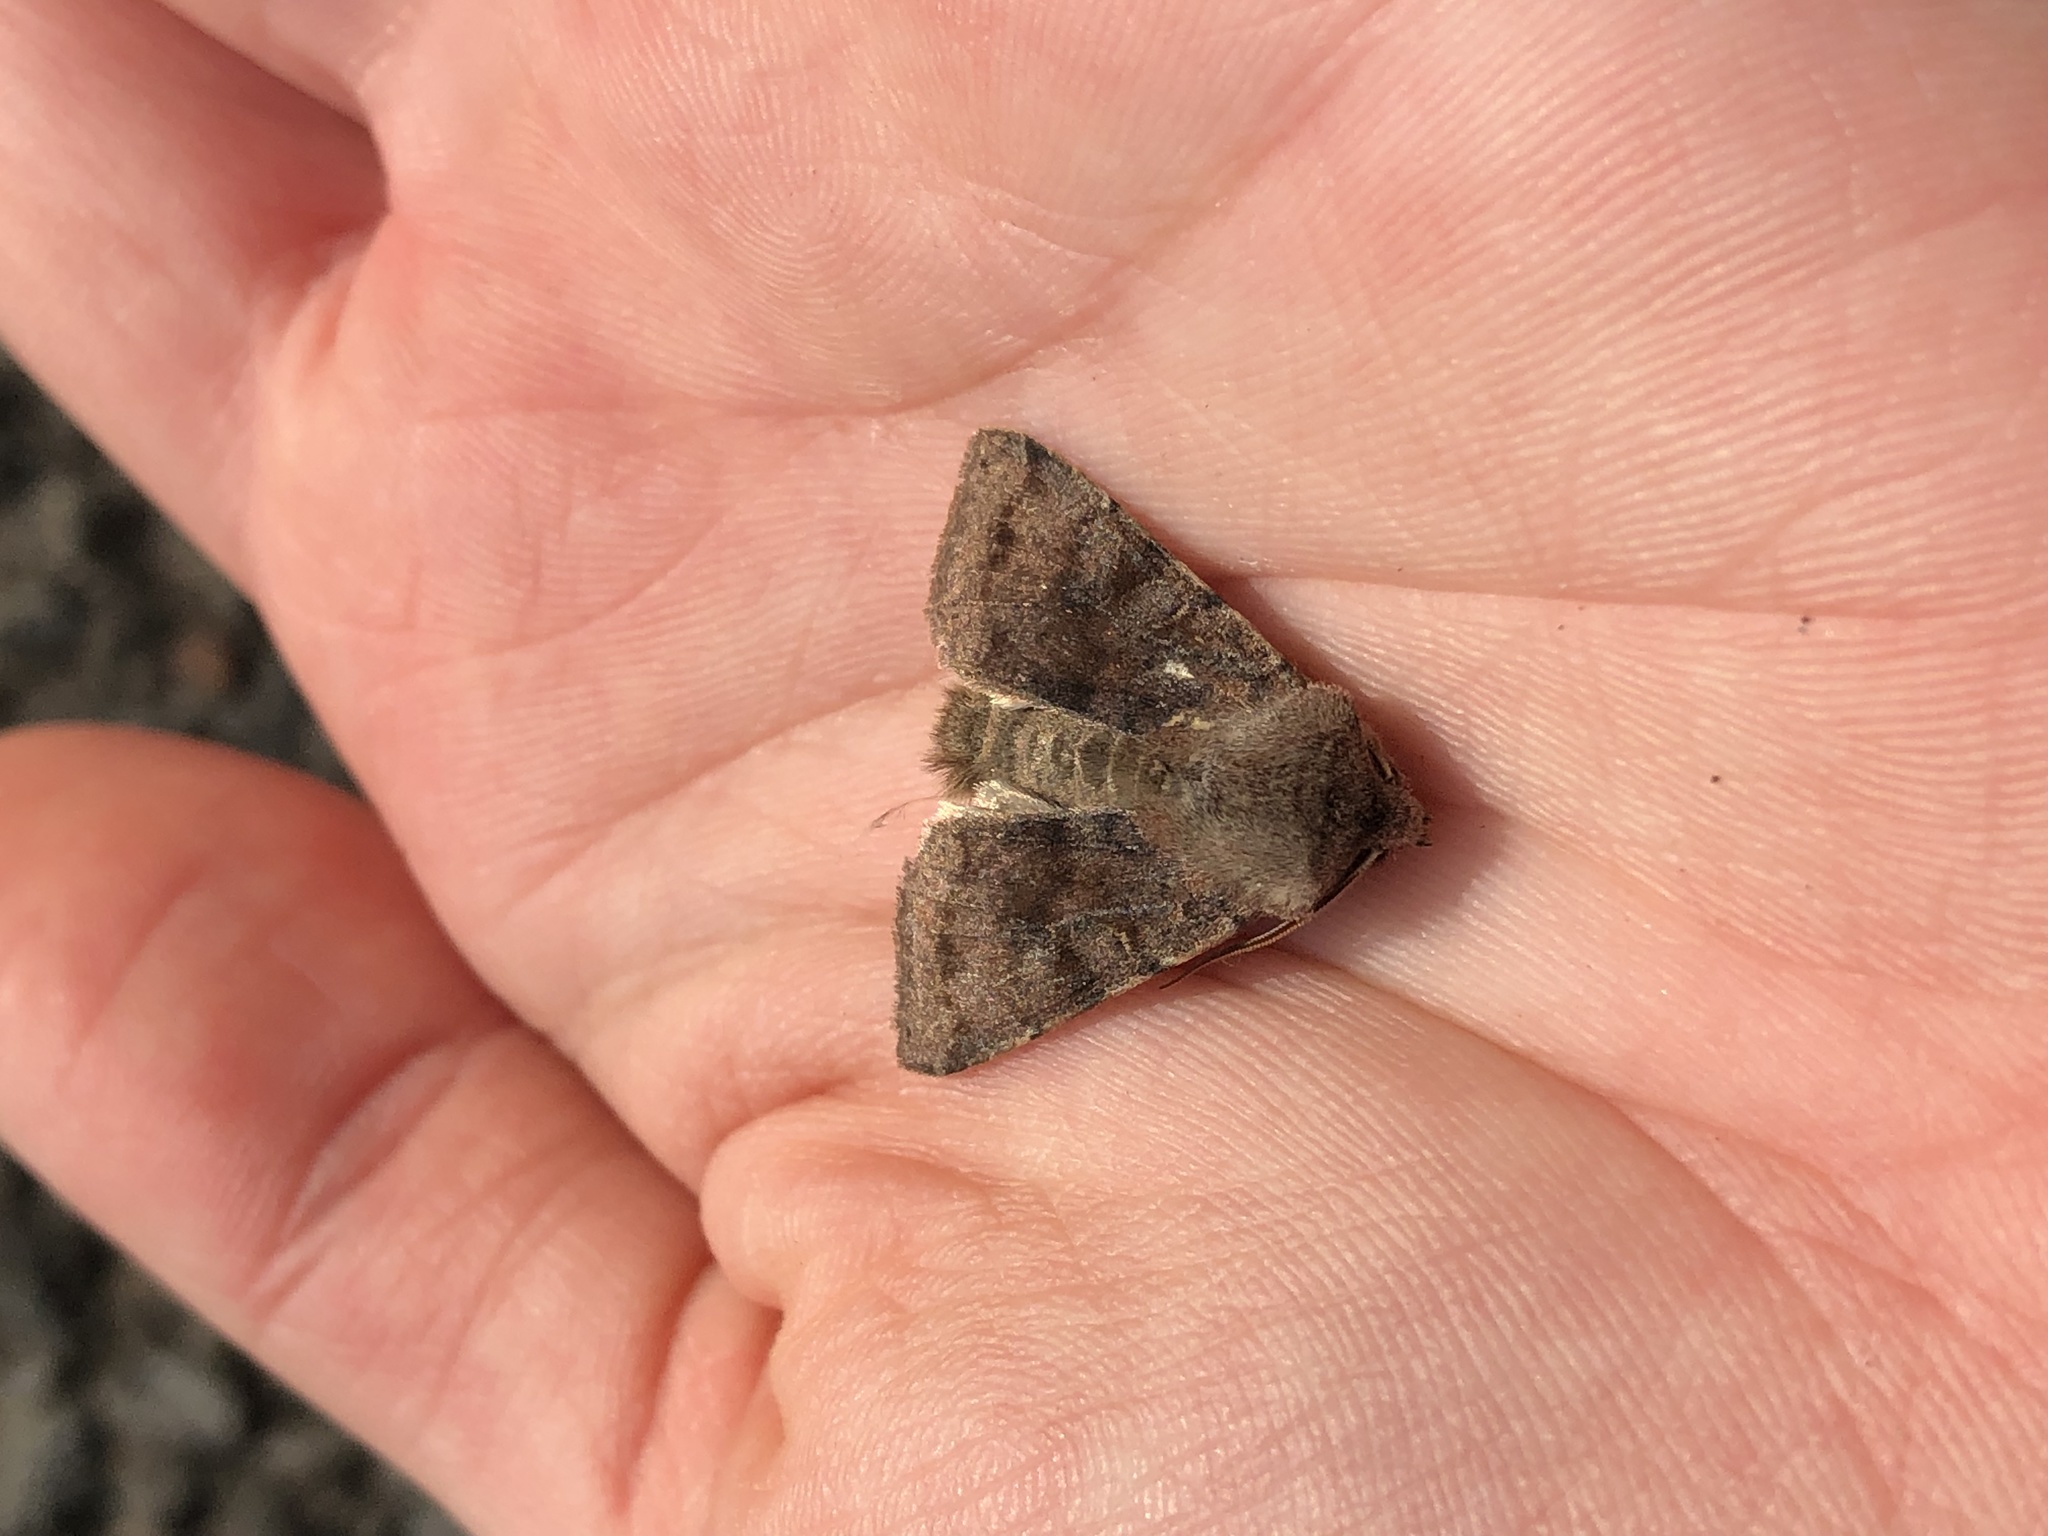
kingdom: Animalia
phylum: Arthropoda
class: Insecta
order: Lepidoptera
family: Noctuidae
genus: Orthosia
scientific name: Orthosia incerta
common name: Clouded drab
